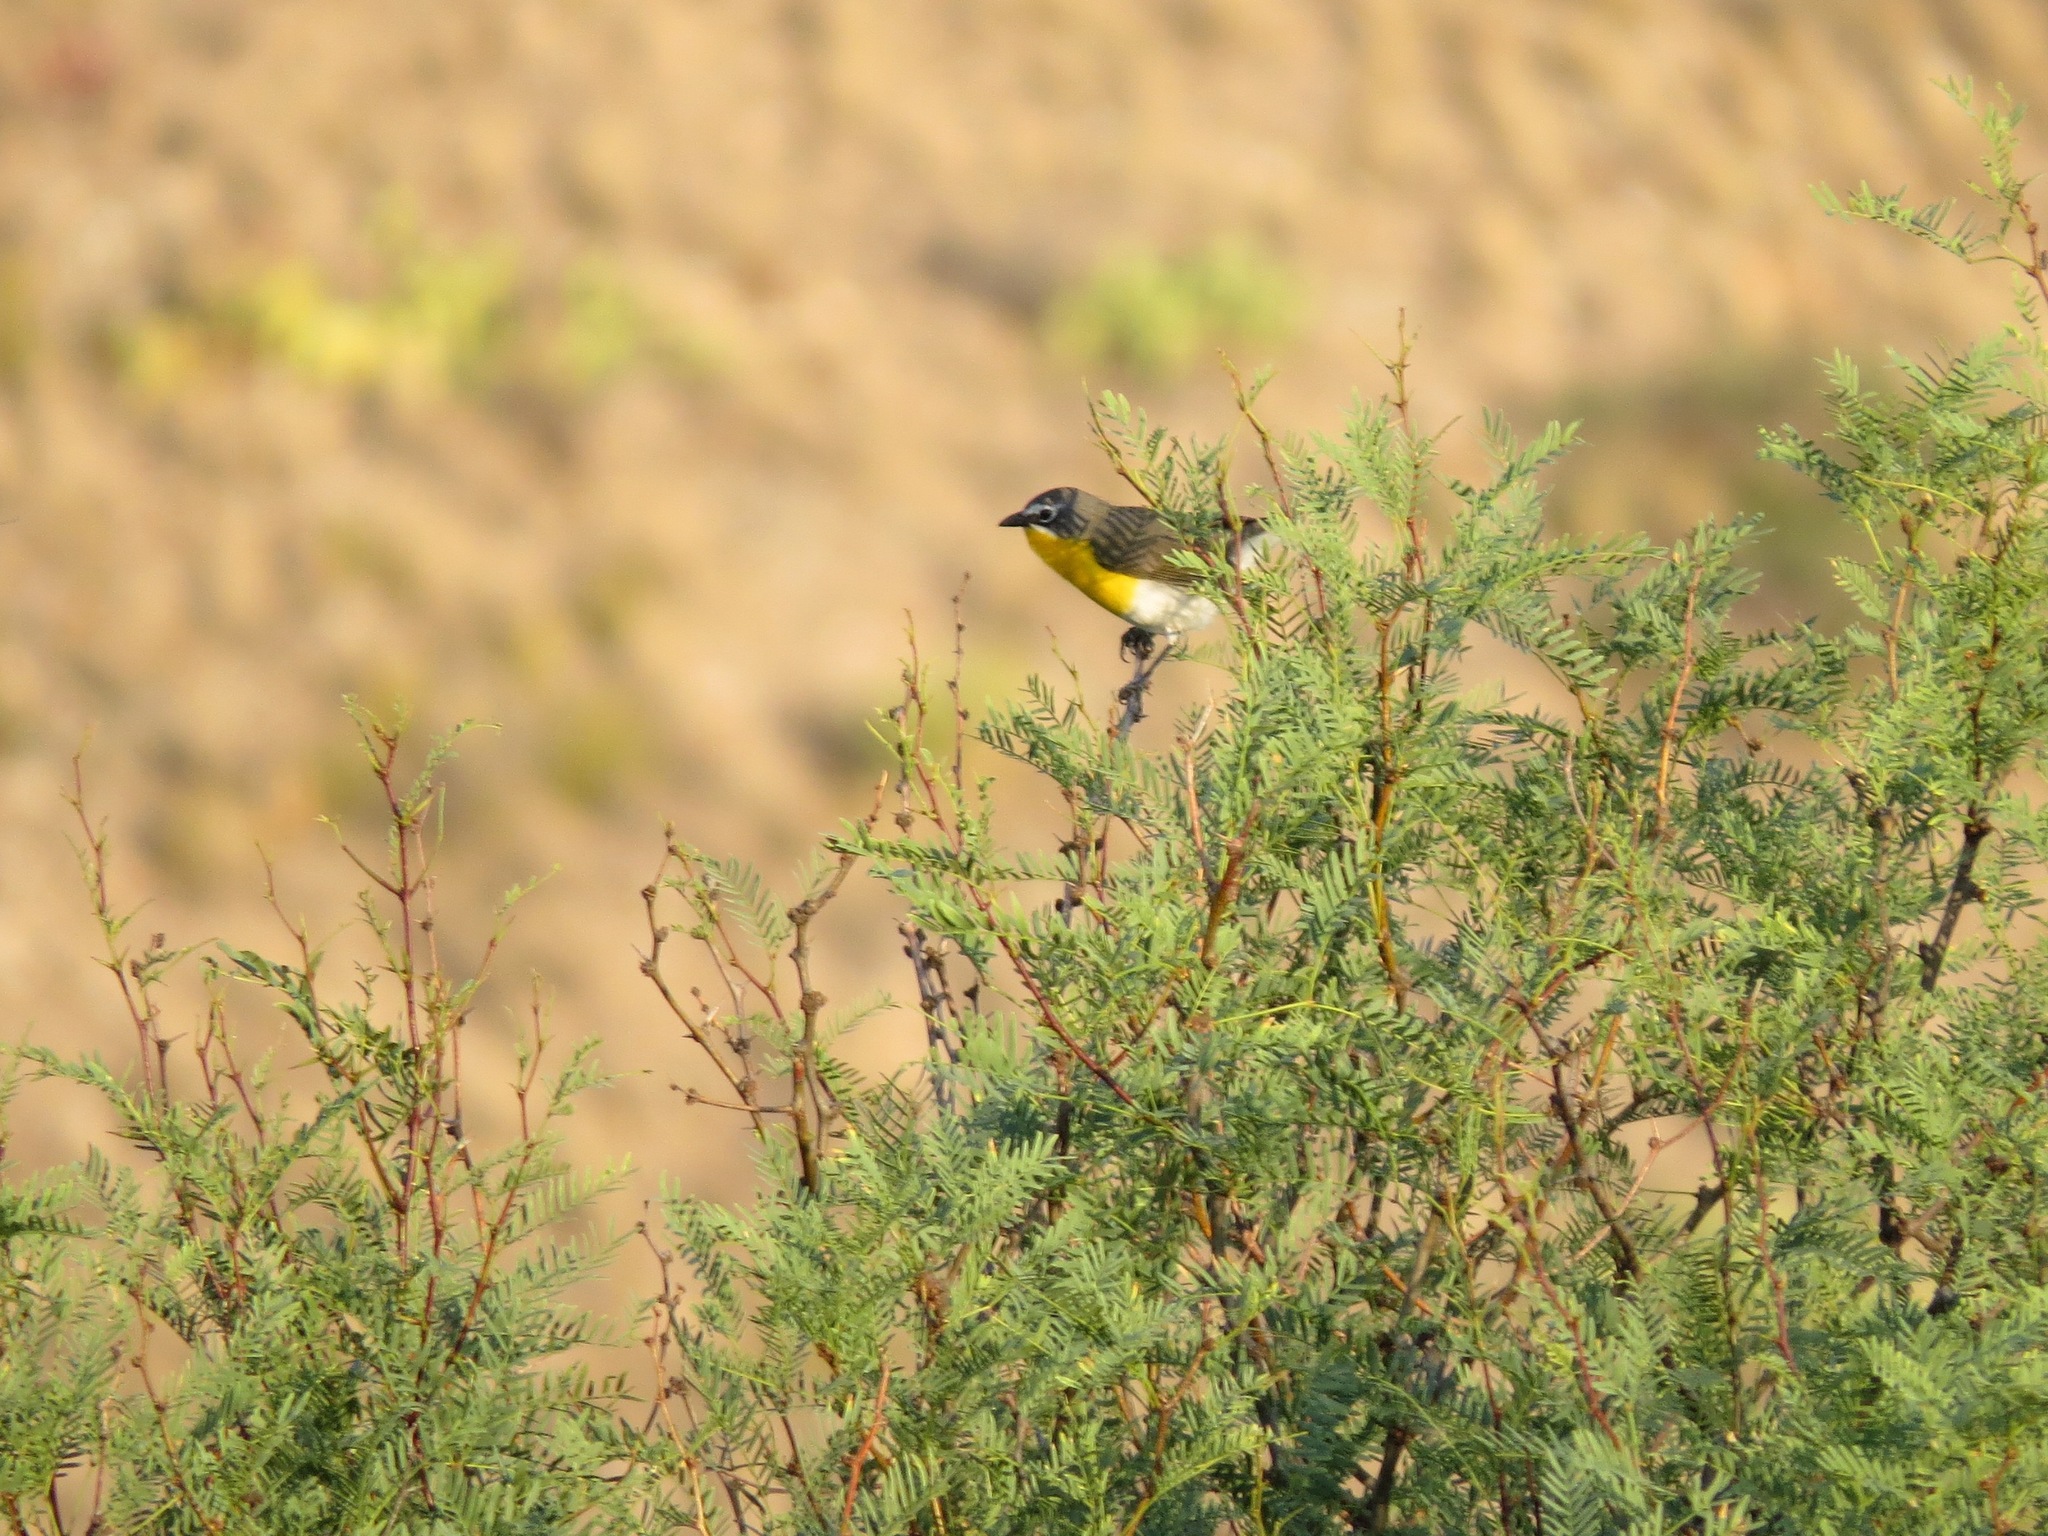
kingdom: Animalia
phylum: Chordata
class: Aves
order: Passeriformes
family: Parulidae
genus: Icteria
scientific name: Icteria virens
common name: Yellow-breasted chat
